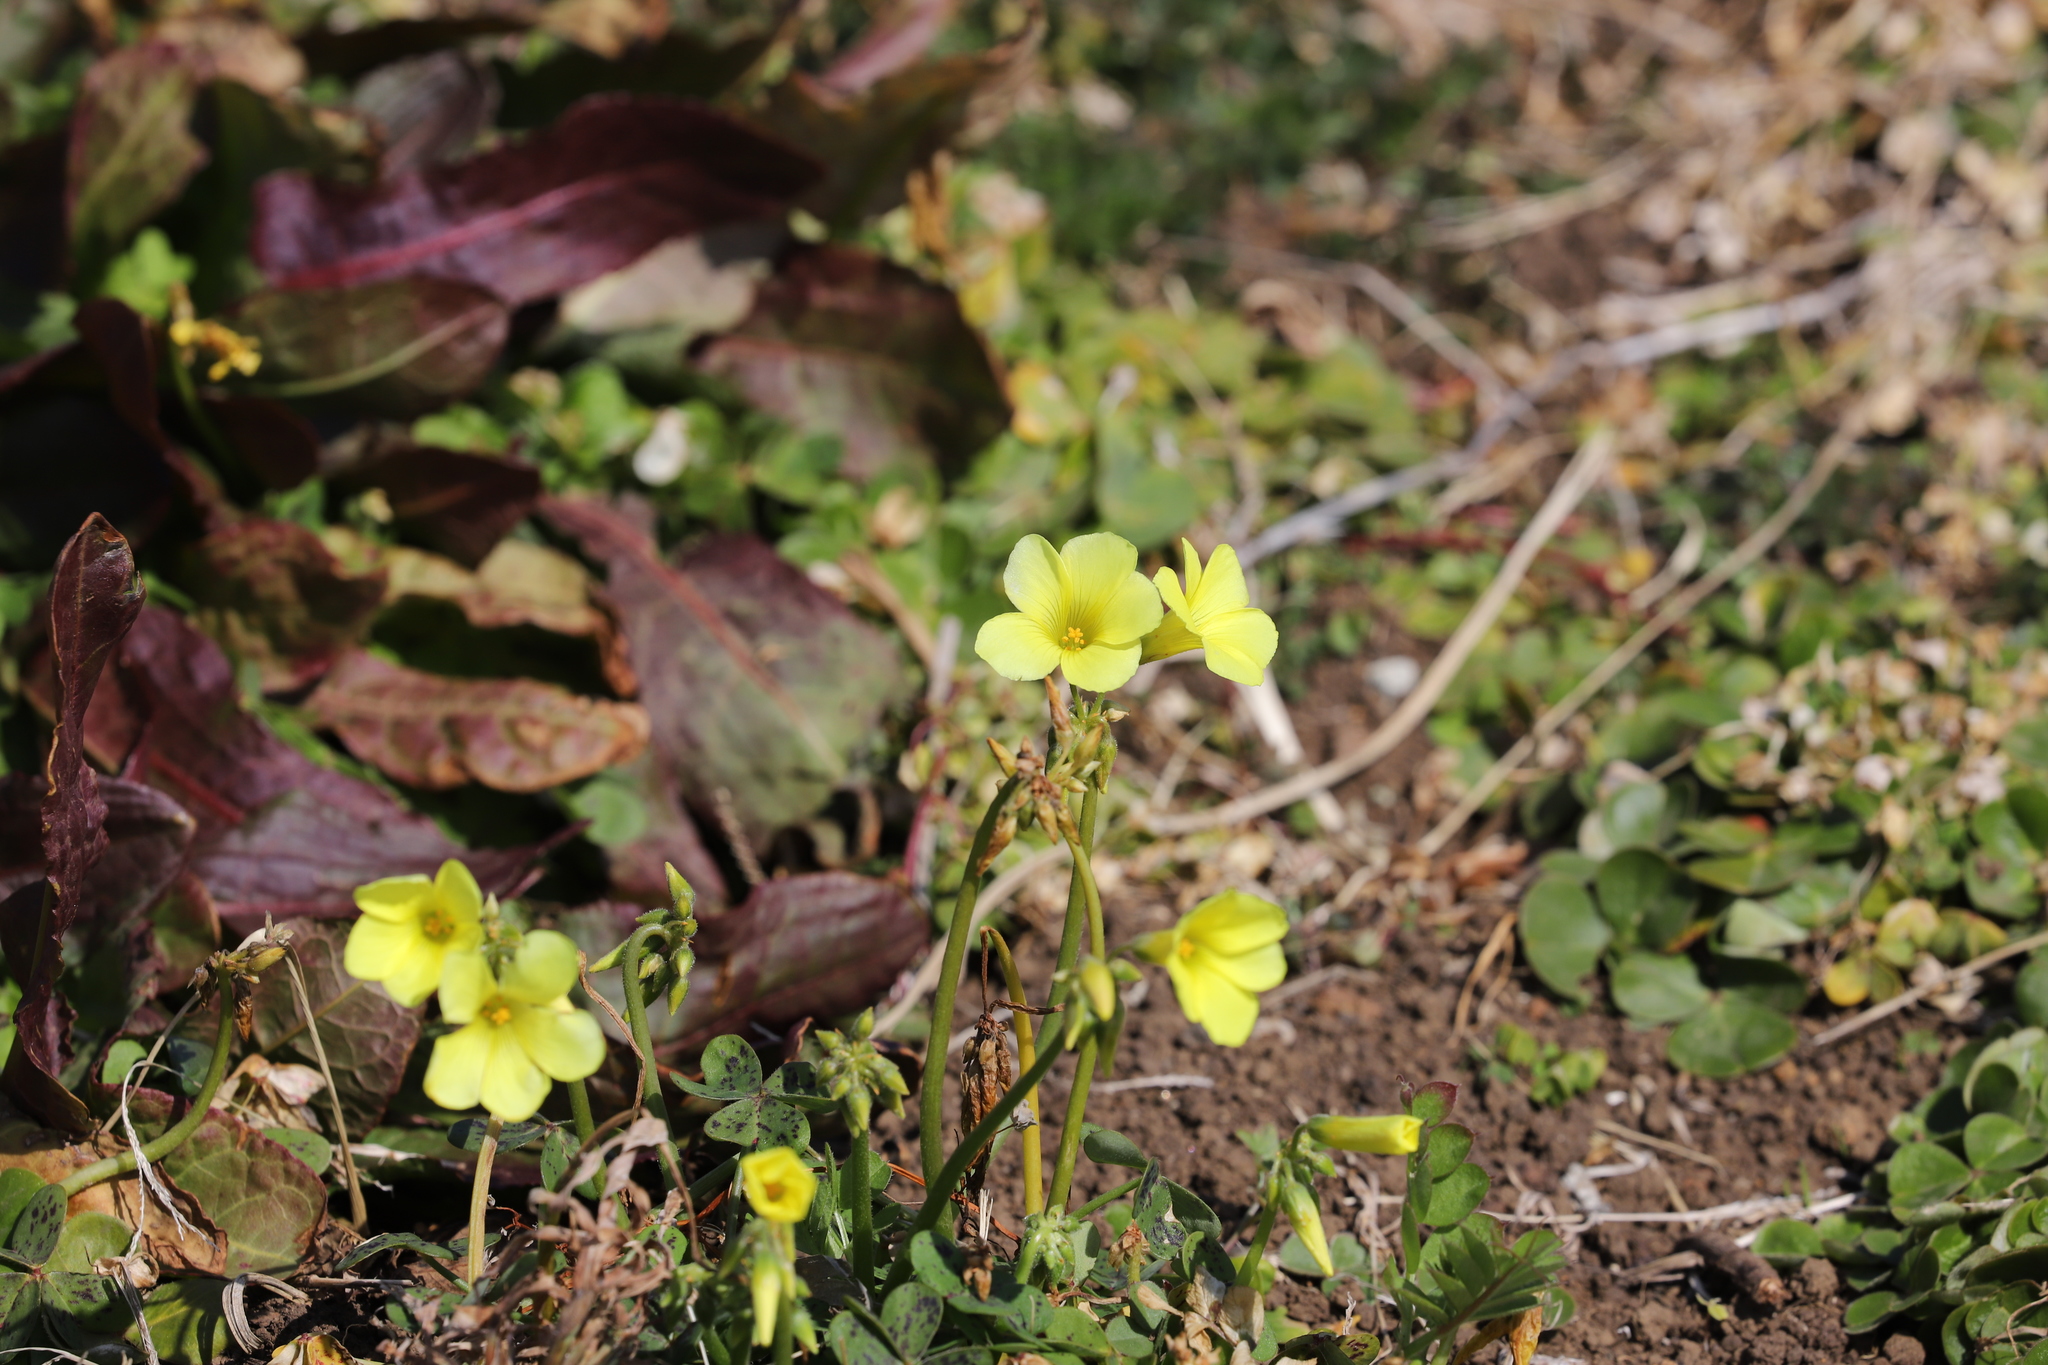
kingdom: Plantae
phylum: Tracheophyta
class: Magnoliopsida
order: Oxalidales
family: Oxalidaceae
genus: Oxalis
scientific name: Oxalis pes-caprae
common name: Bermuda-buttercup
